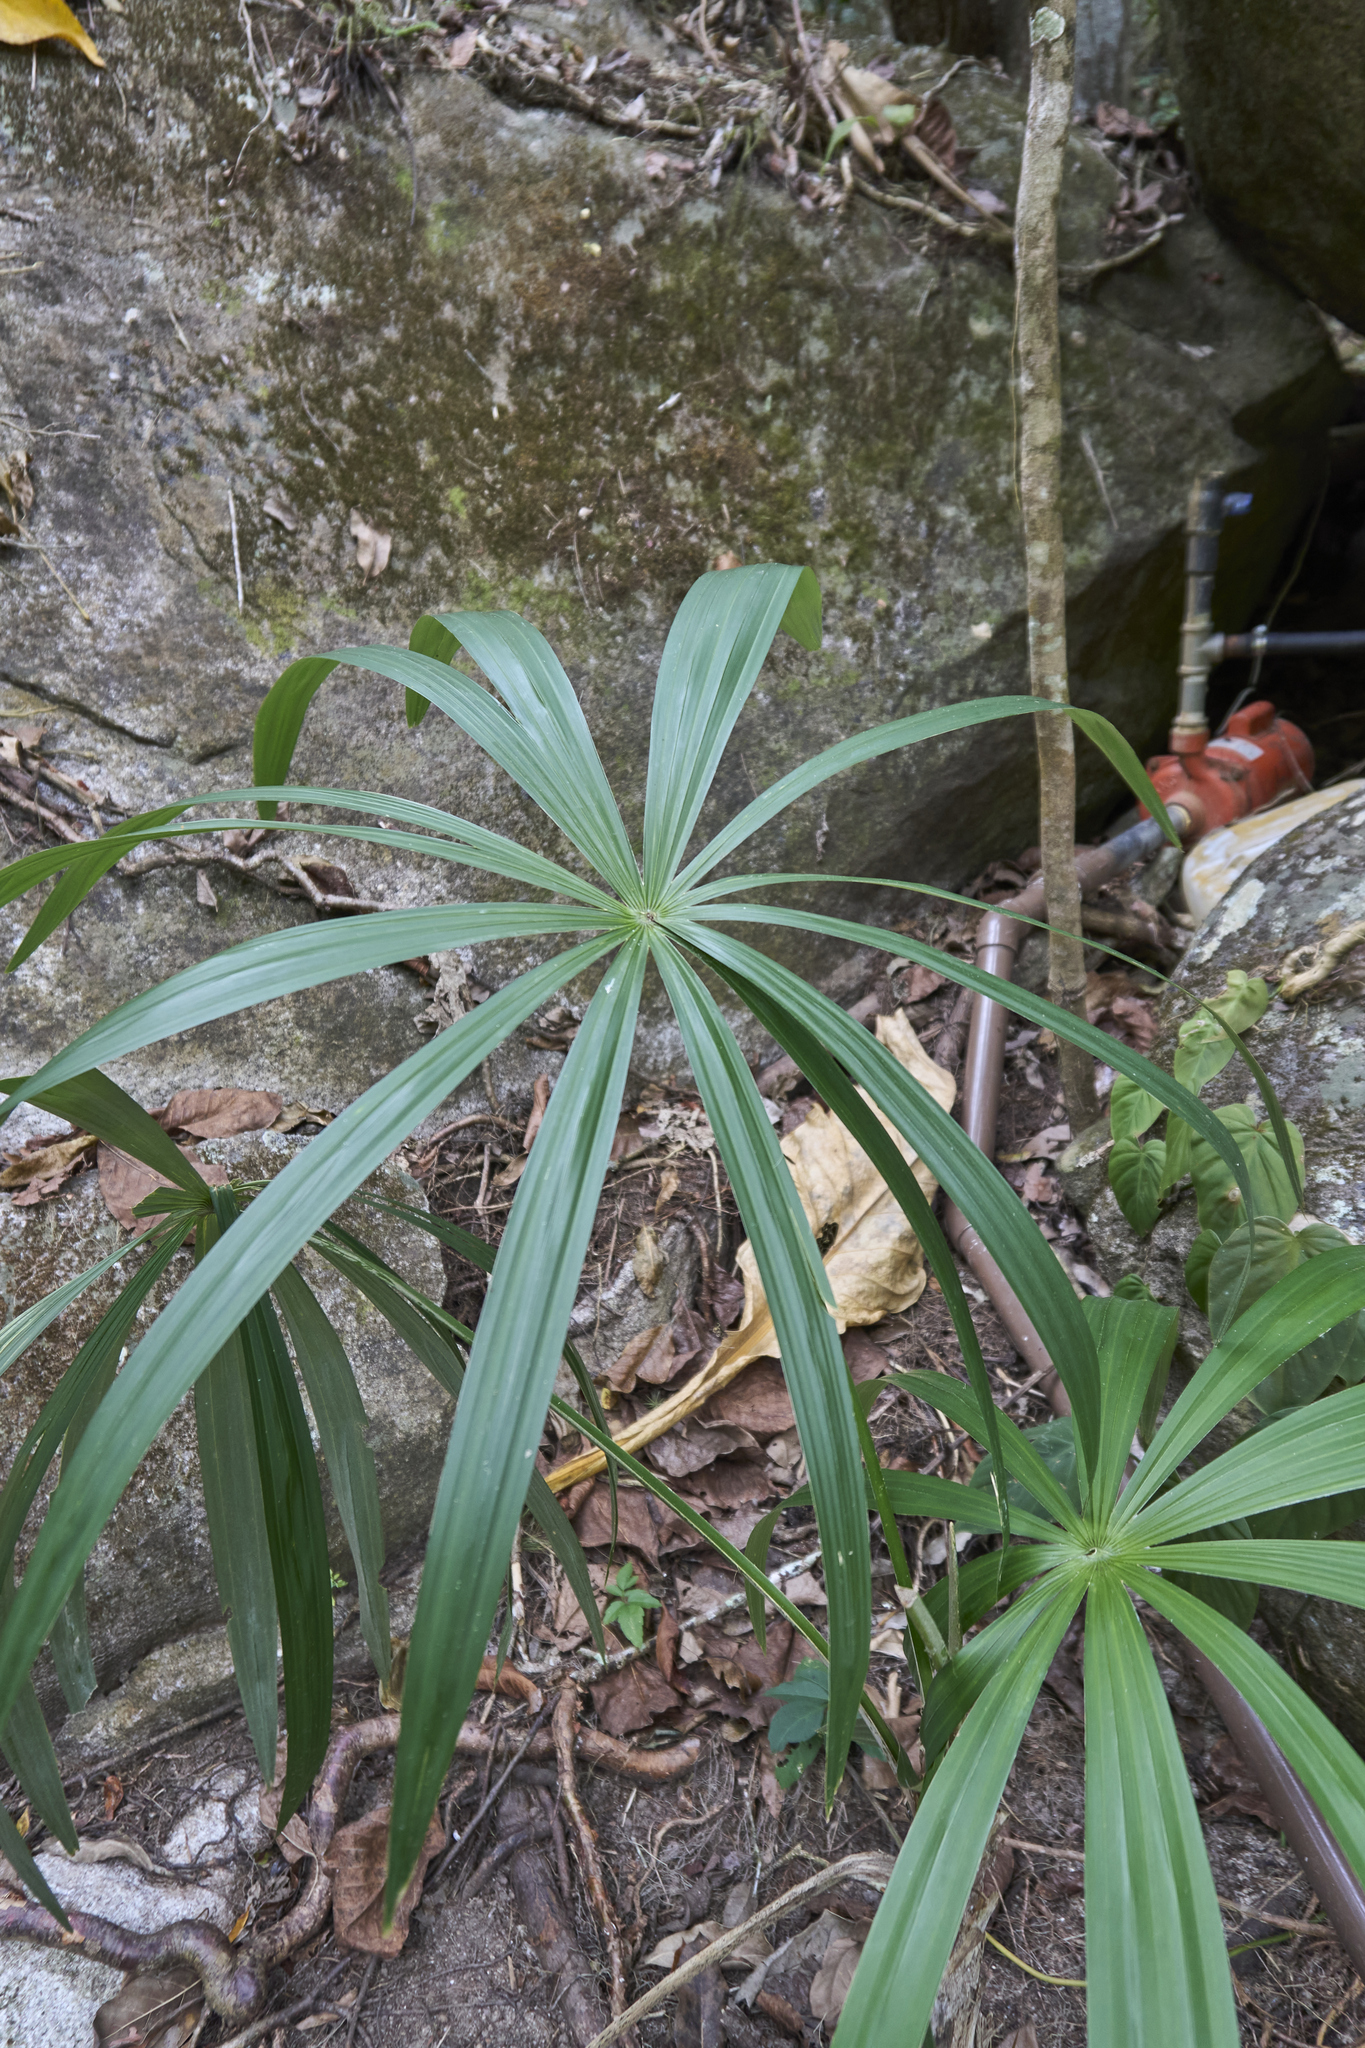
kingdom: Plantae
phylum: Tracheophyta
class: Liliopsida
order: Arecales
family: Arecaceae
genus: Cryosophila
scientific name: Cryosophila nana
